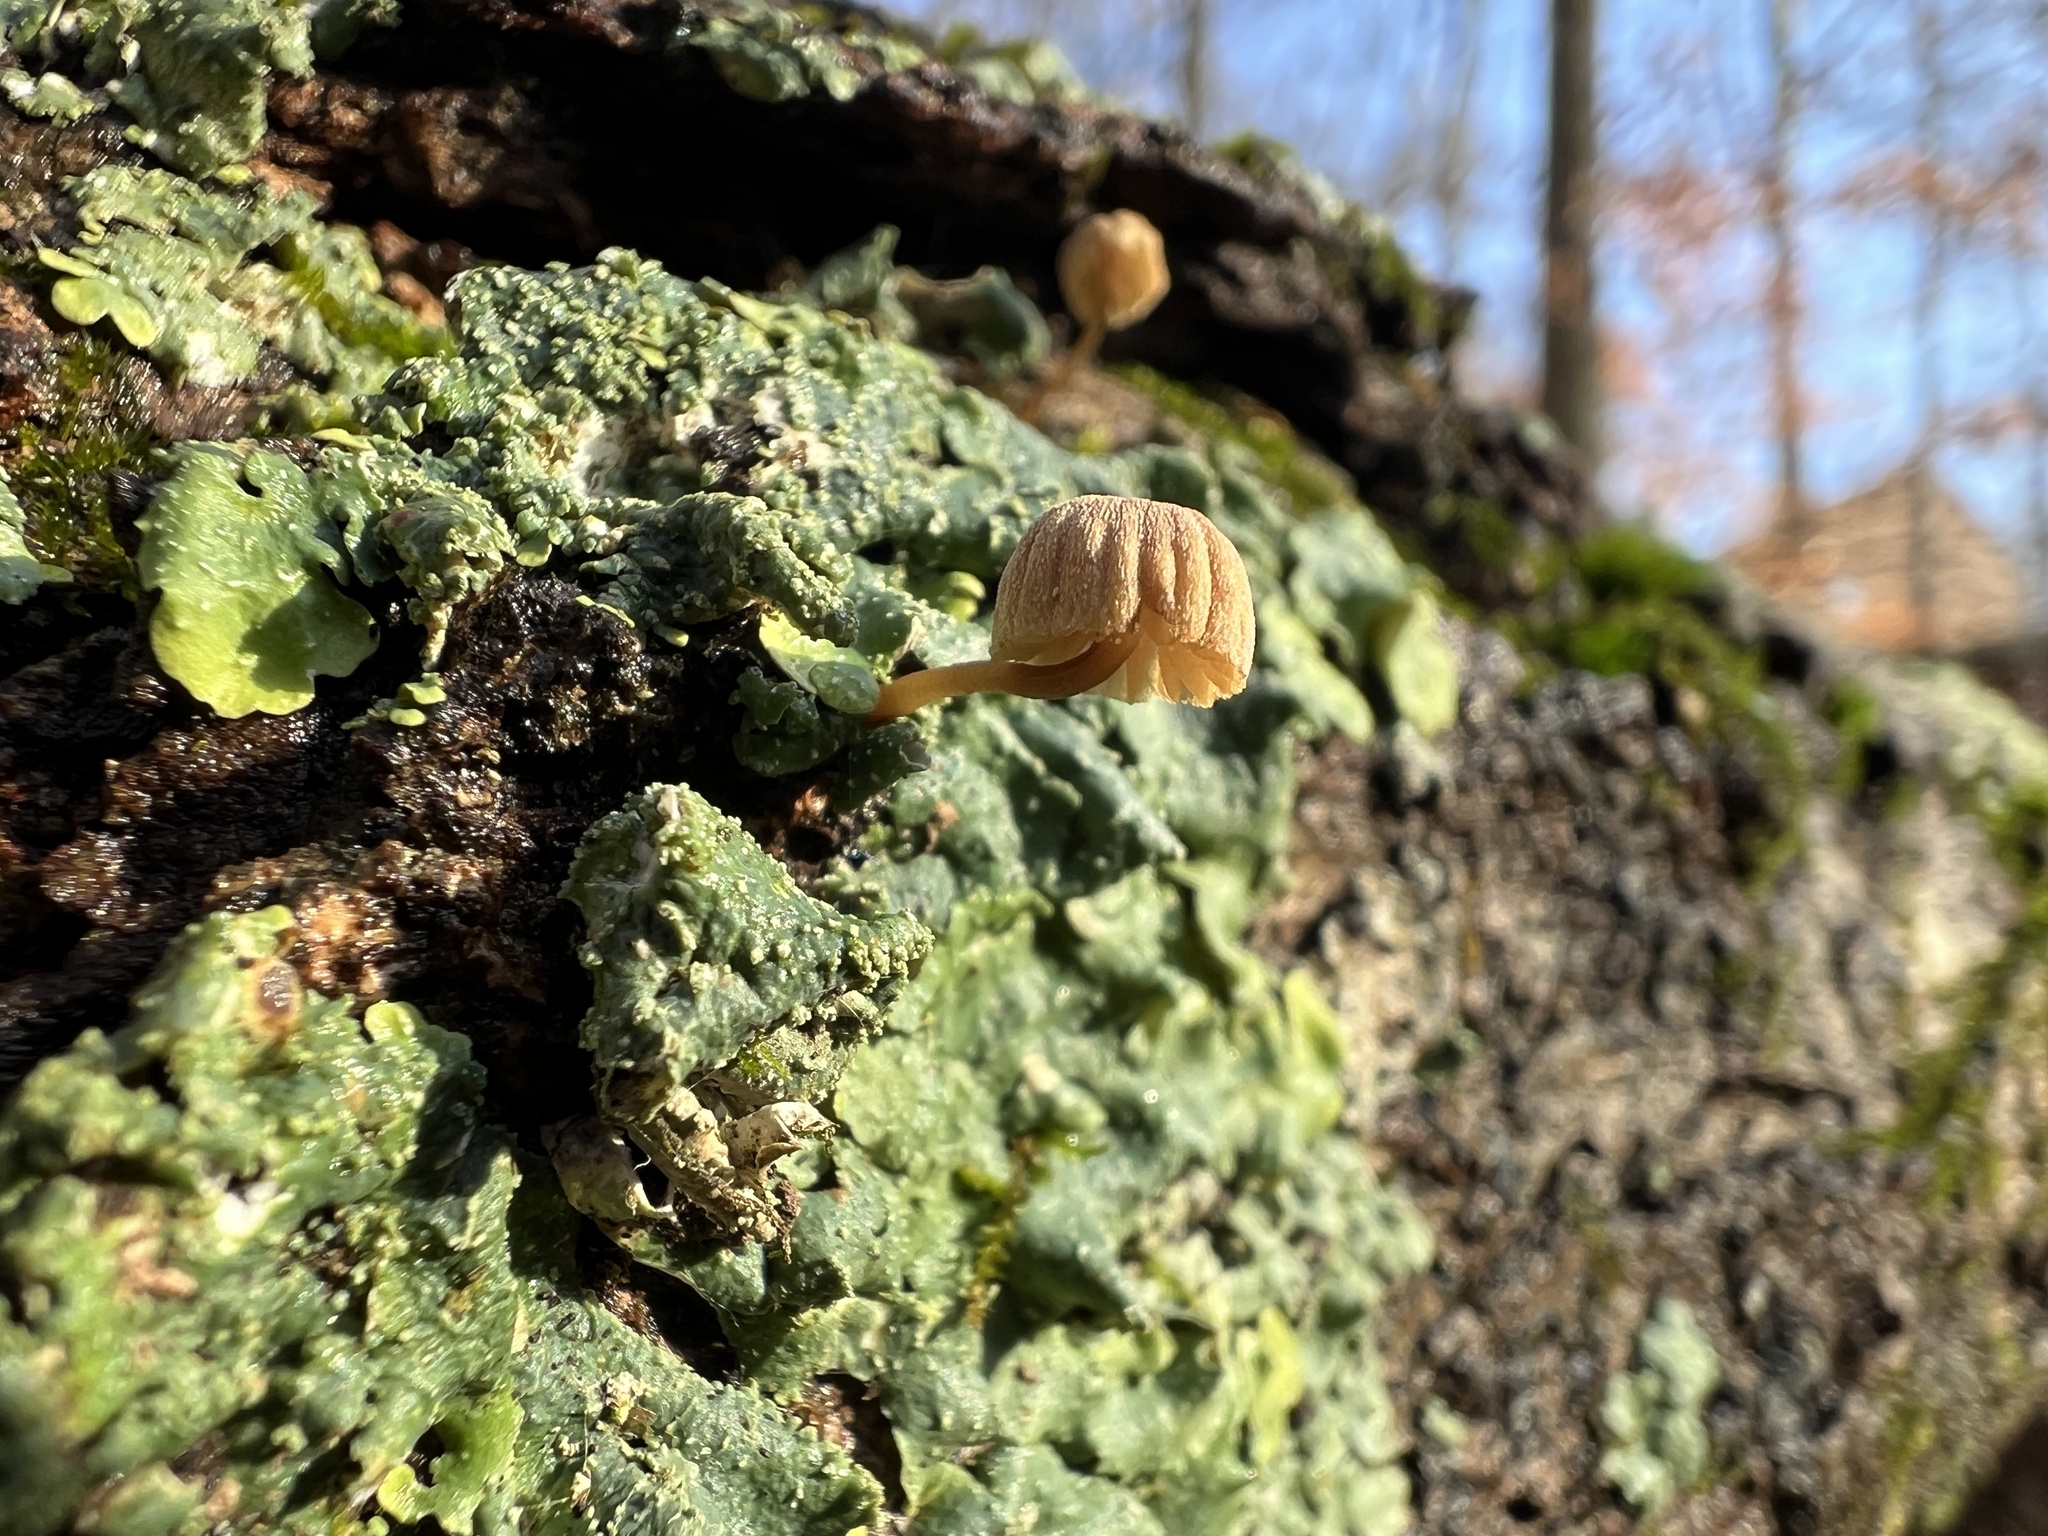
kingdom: Fungi
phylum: Basidiomycota
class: Agaricomycetes
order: Agaricales
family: Mycenaceae
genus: Mycena
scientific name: Mycena meliigena
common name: Mauve bonnet
